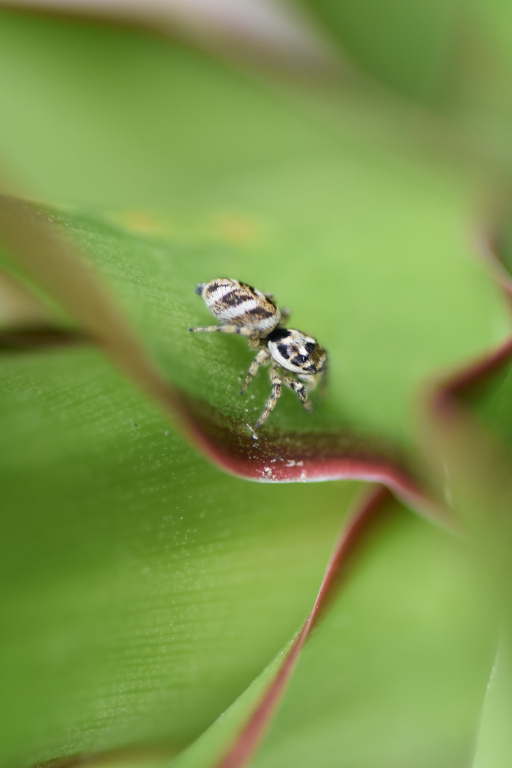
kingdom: Animalia
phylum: Arthropoda
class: Arachnida
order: Araneae
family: Salticidae
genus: Salticus
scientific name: Salticus scenicus
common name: Zebra jumper
